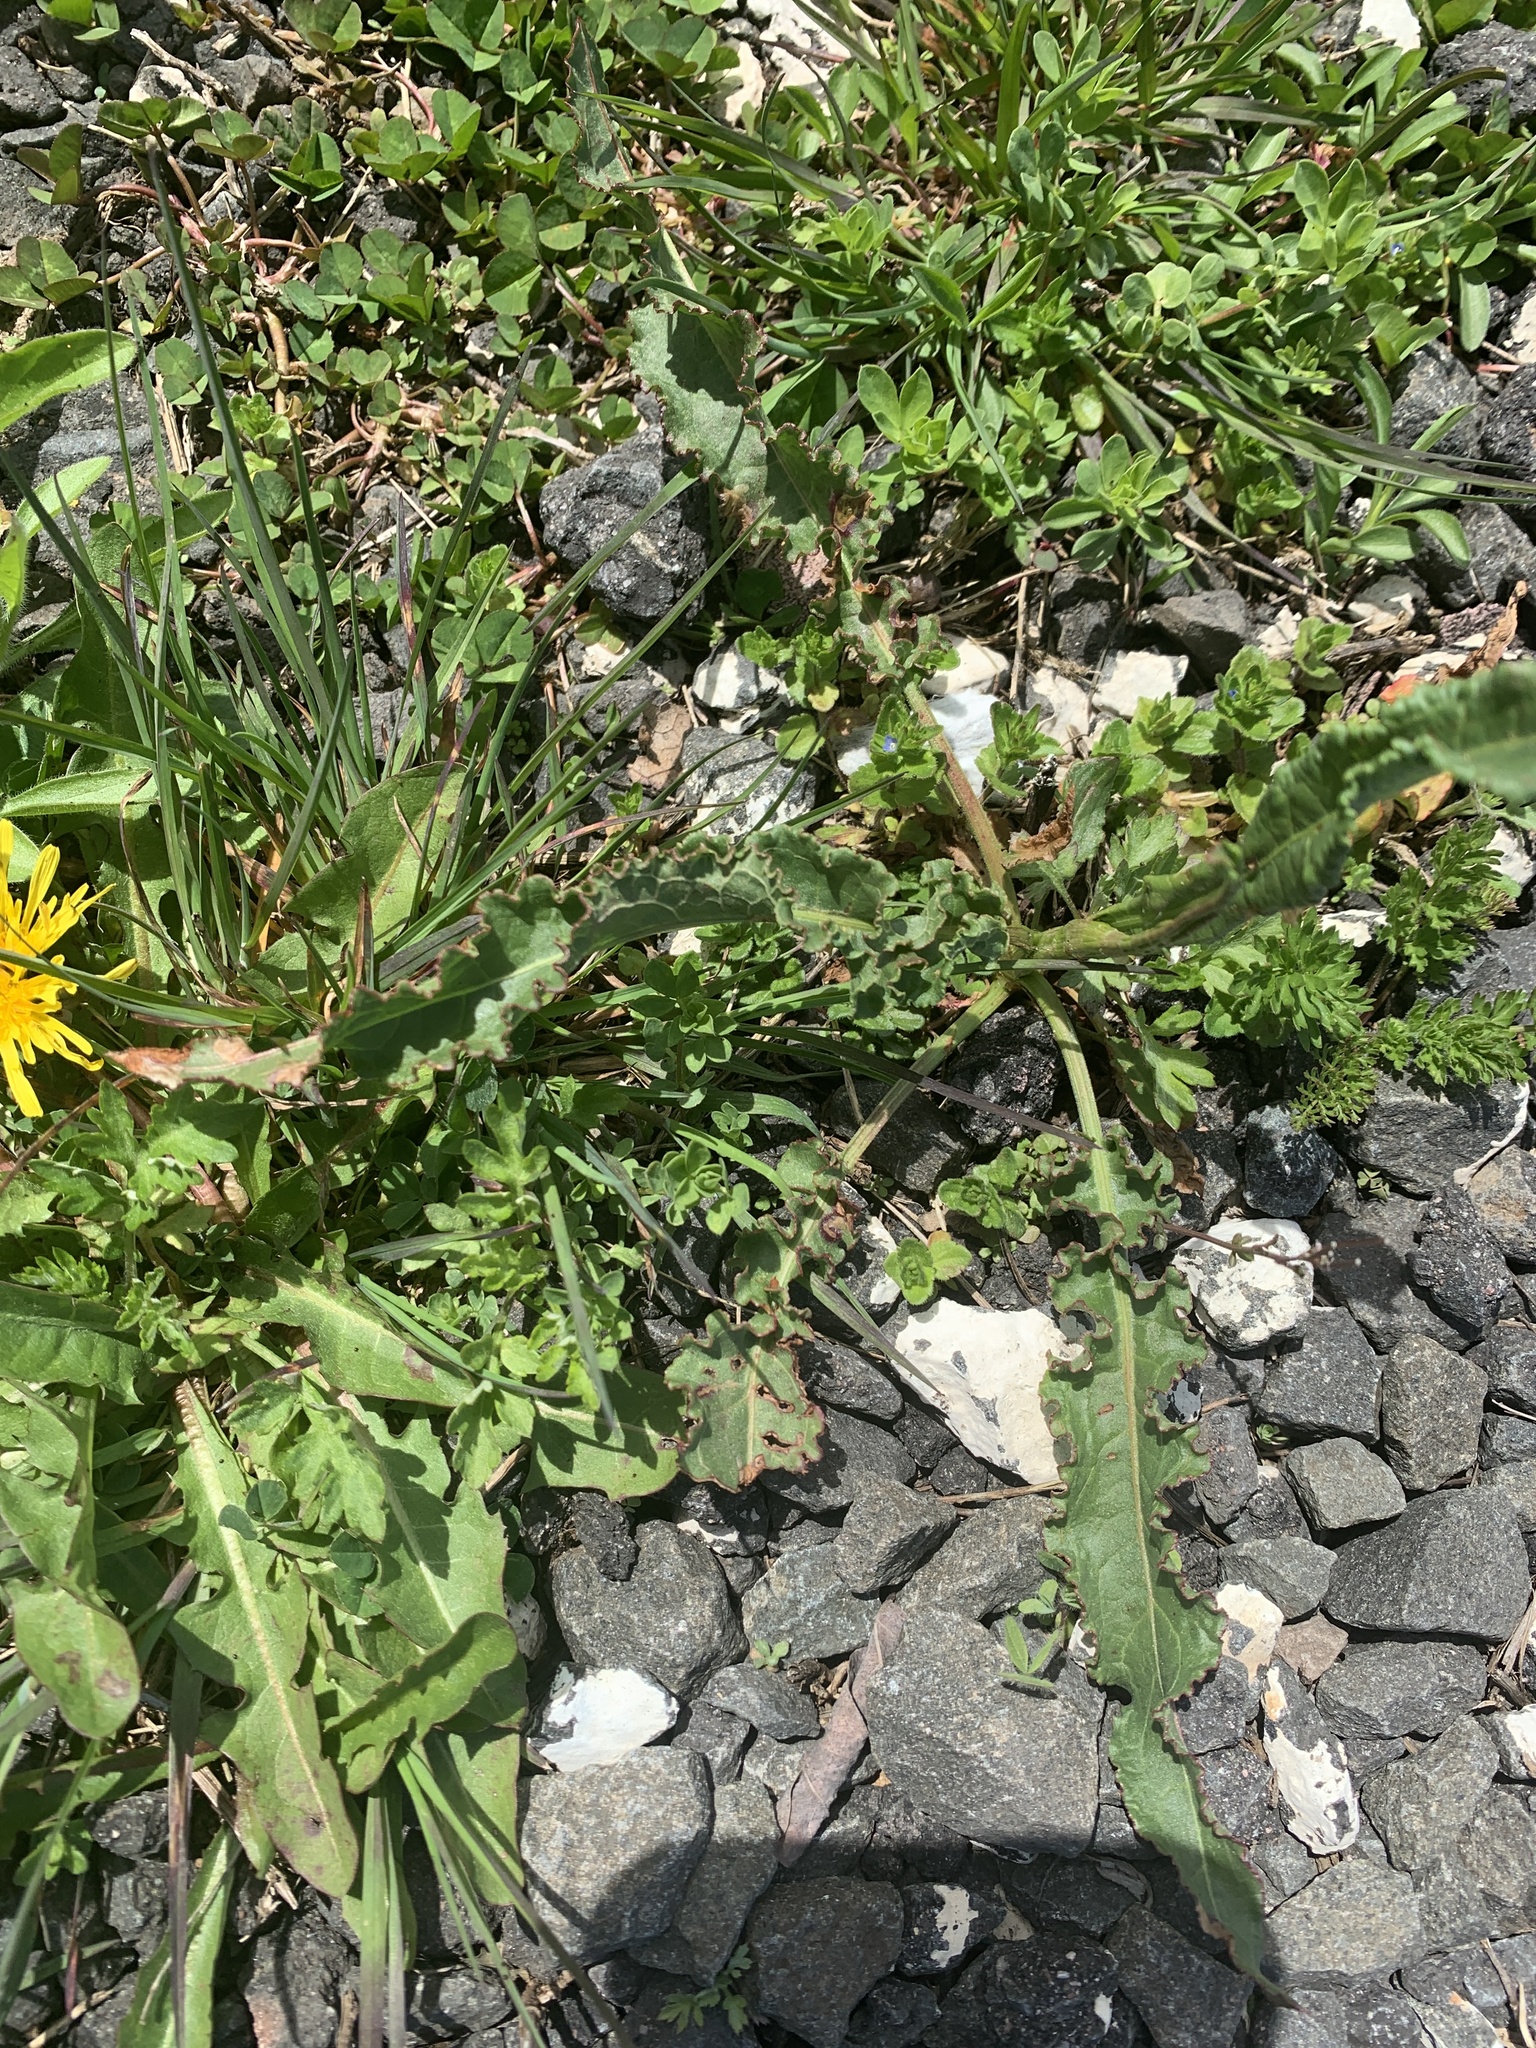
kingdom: Plantae
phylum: Tracheophyta
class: Magnoliopsida
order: Caryophyllales
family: Polygonaceae
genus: Rumex
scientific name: Rumex crispus
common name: Curled dock
